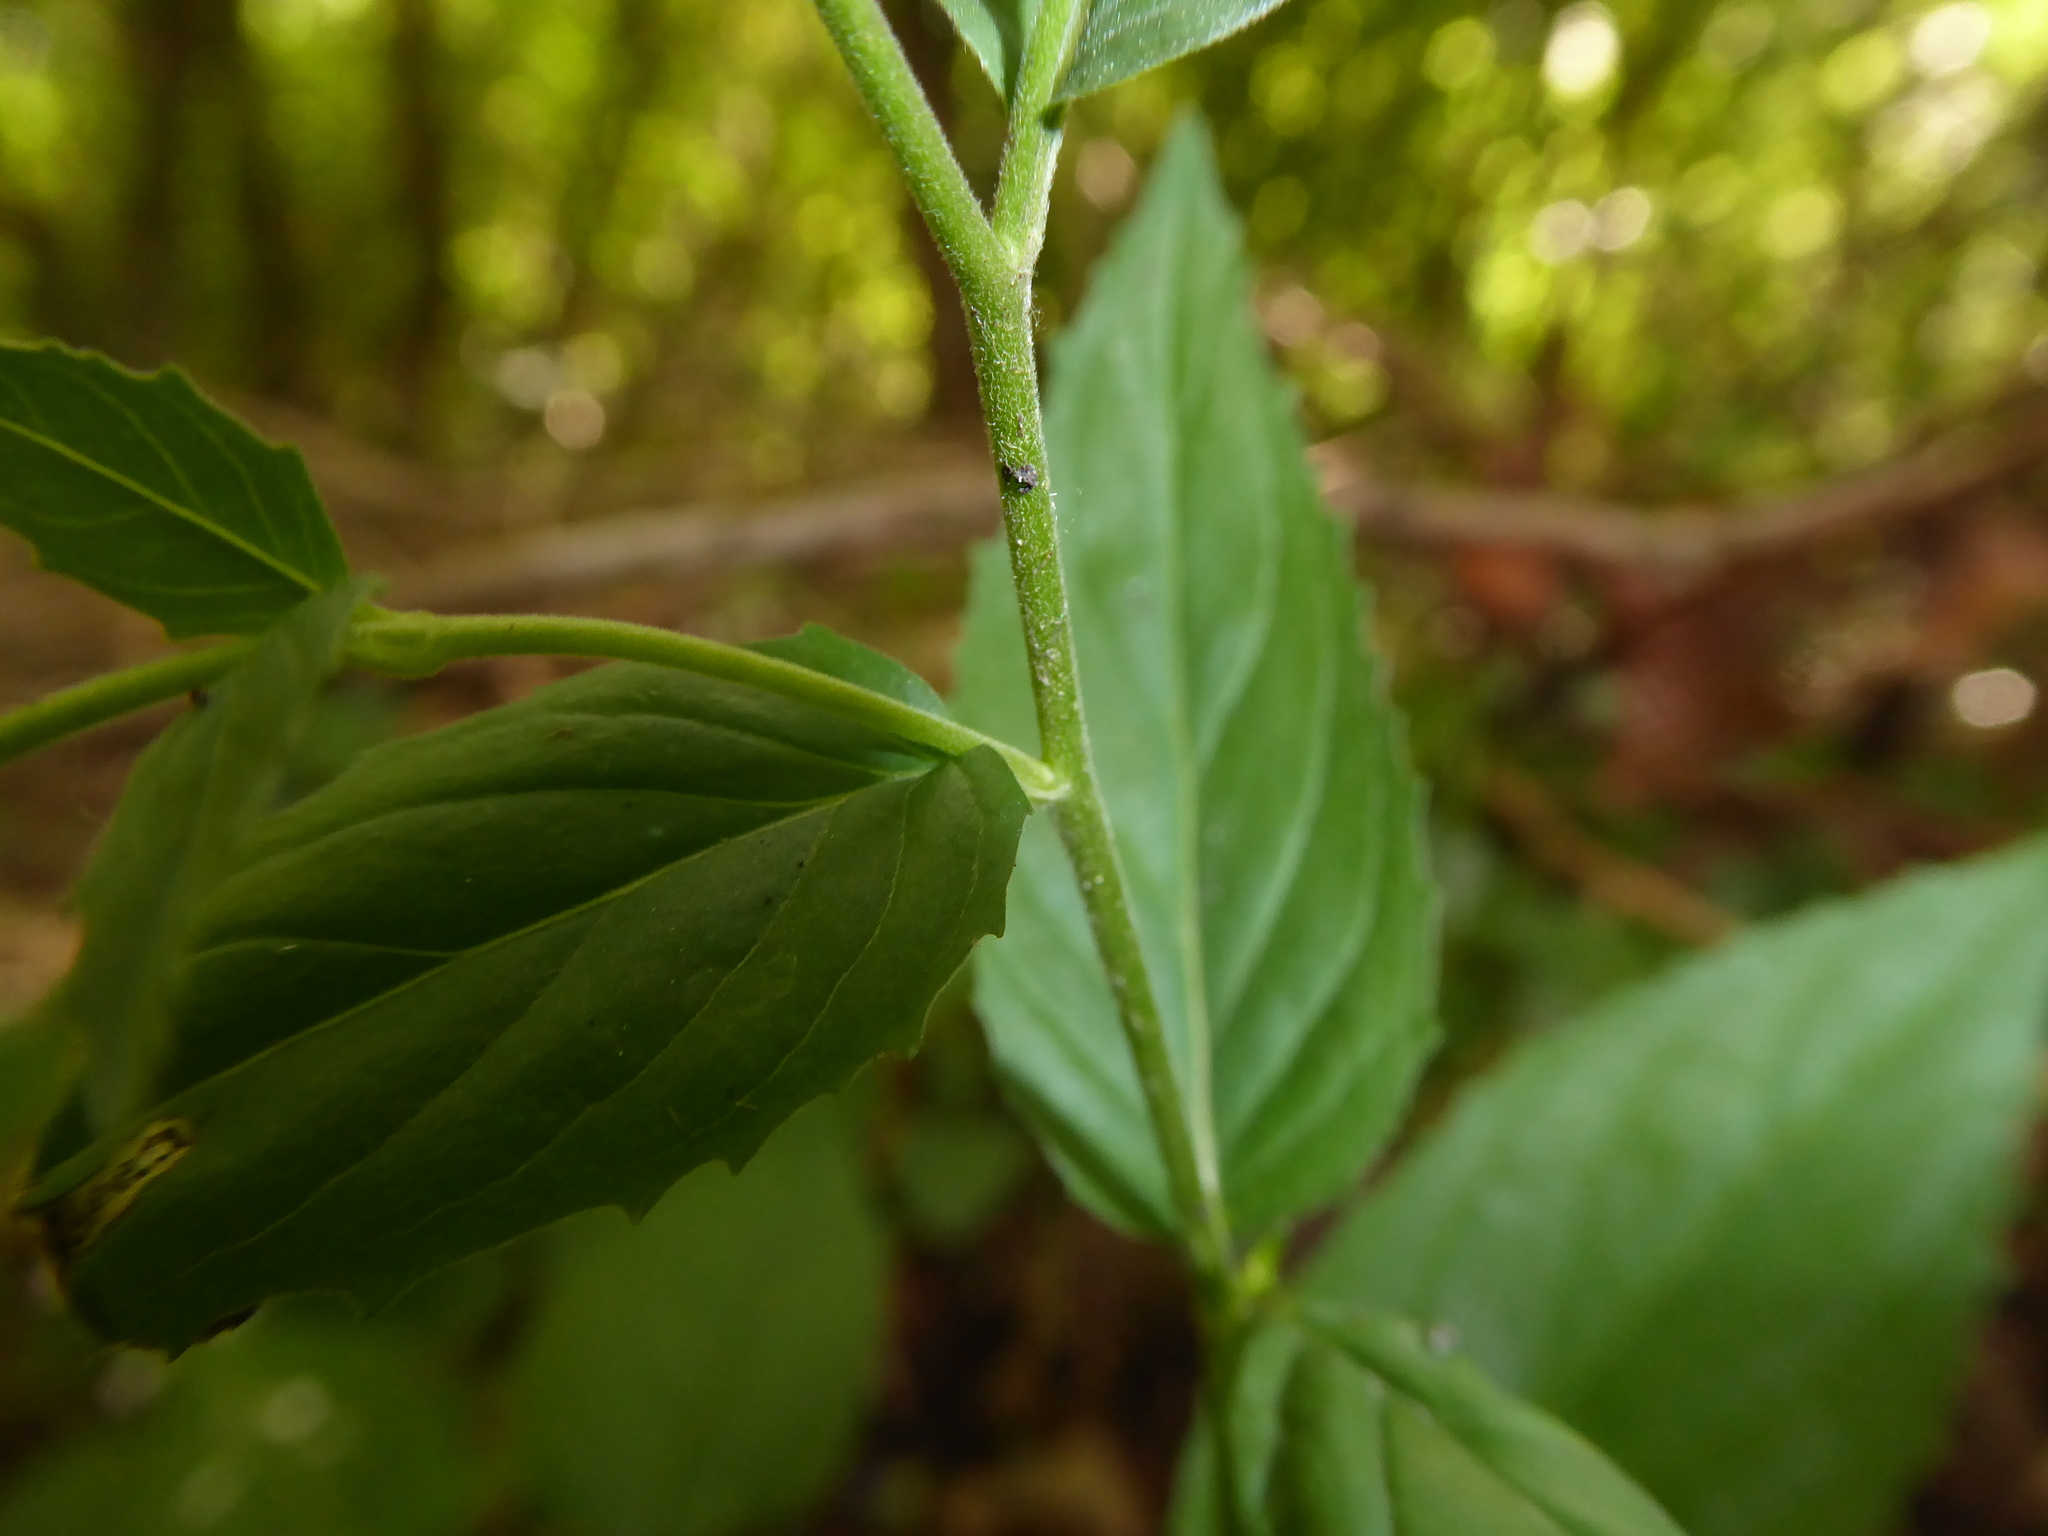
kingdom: Plantae
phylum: Tracheophyta
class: Magnoliopsida
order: Myrtales
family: Onagraceae
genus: Epilobium
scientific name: Epilobium montanum
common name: Broad-leaved willowherb
